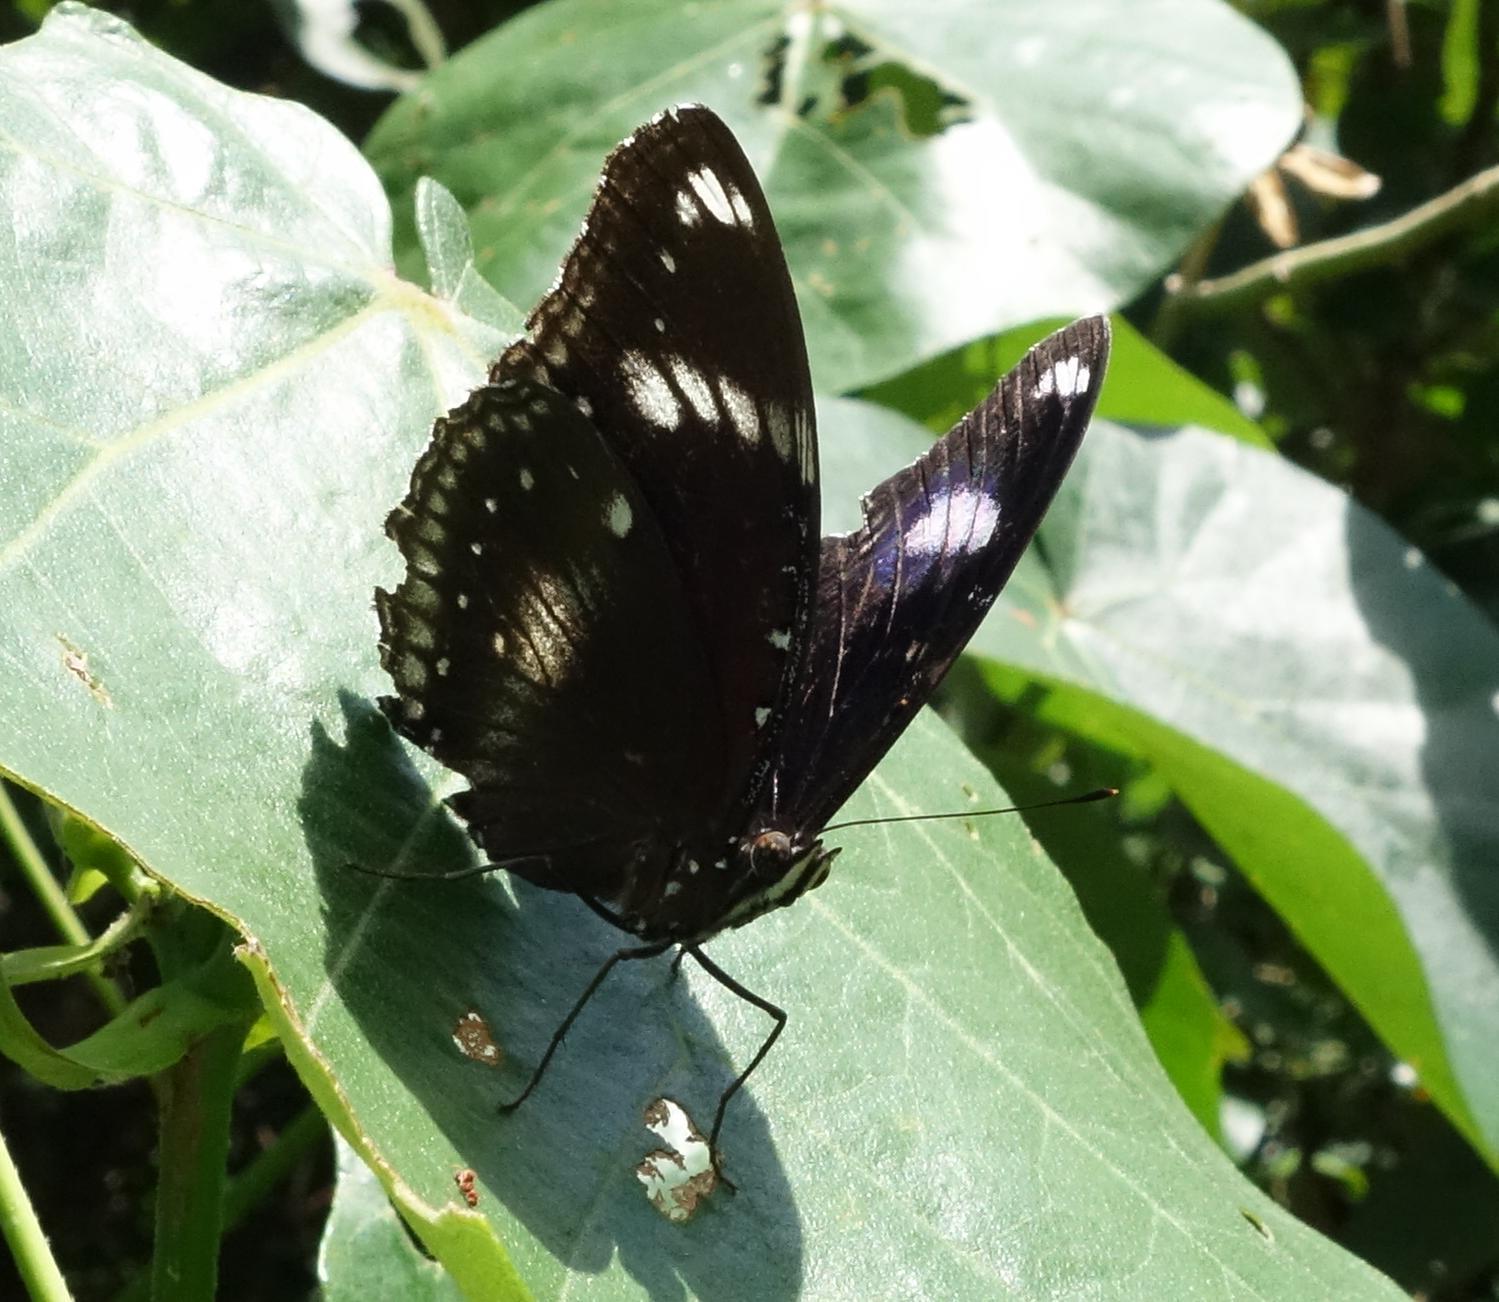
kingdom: Animalia
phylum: Arthropoda
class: Insecta
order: Lepidoptera
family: Nymphalidae
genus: Hypolimnas
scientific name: Hypolimnas bolina
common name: Great eggfly
